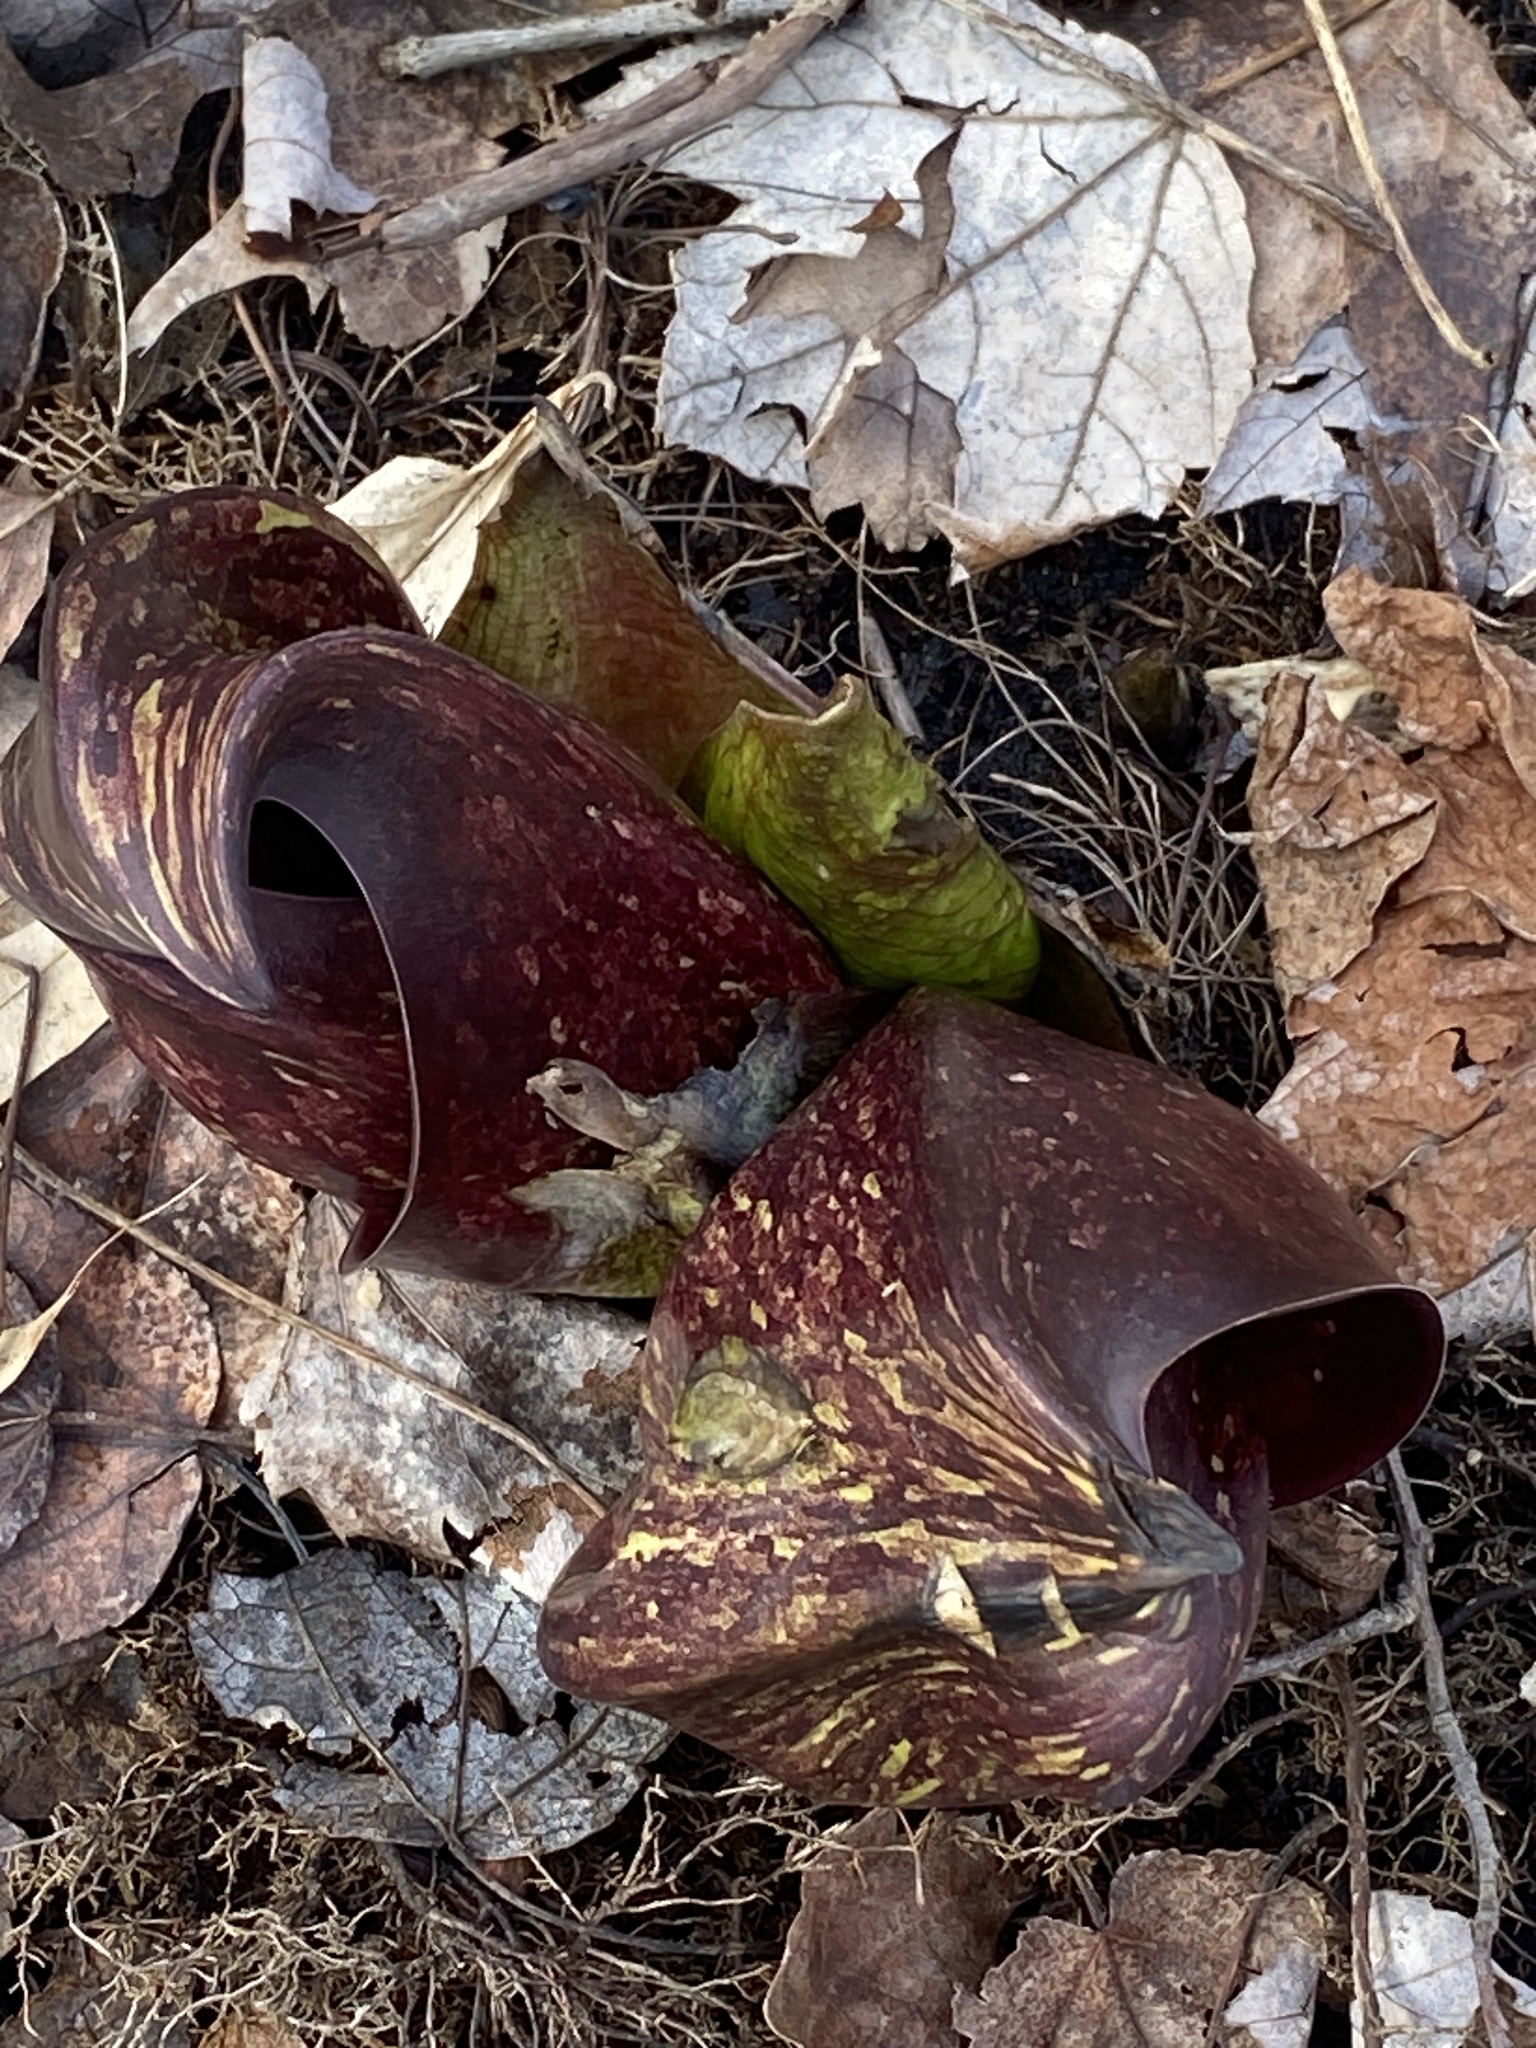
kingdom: Plantae
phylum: Tracheophyta
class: Liliopsida
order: Alismatales
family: Araceae
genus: Symplocarpus
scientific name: Symplocarpus foetidus
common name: Eastern skunk cabbage
